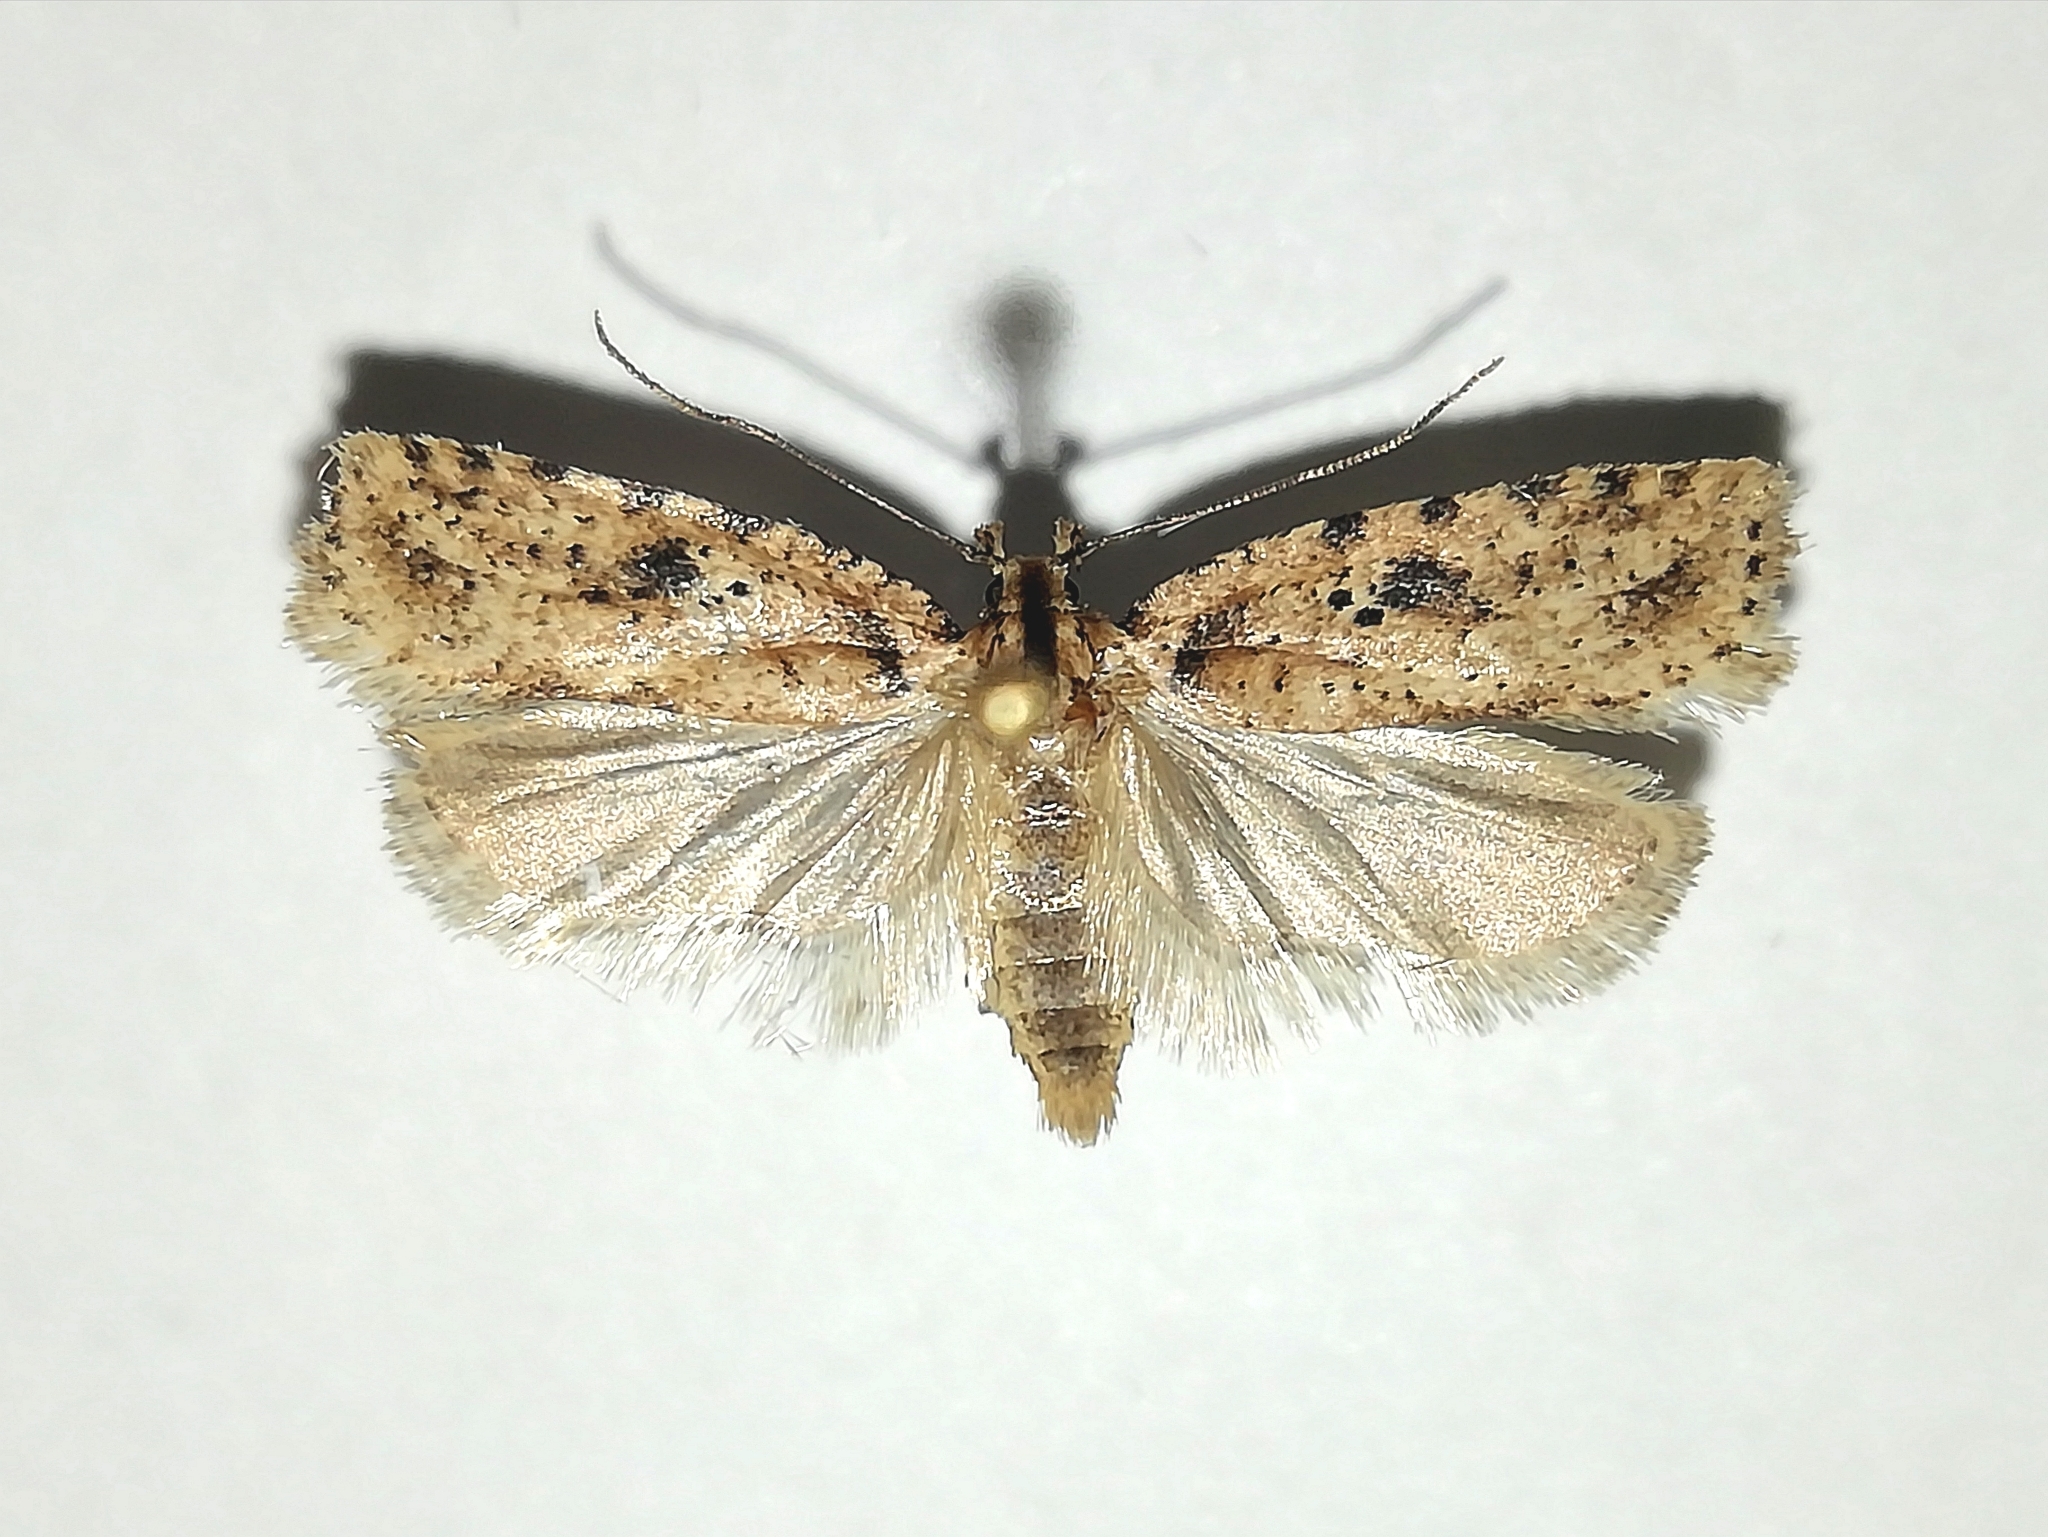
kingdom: Animalia
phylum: Arthropoda
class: Insecta
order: Lepidoptera
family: Depressariidae
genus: Agonopterix
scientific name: Agonopterix arenella
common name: Brindled flat-body
